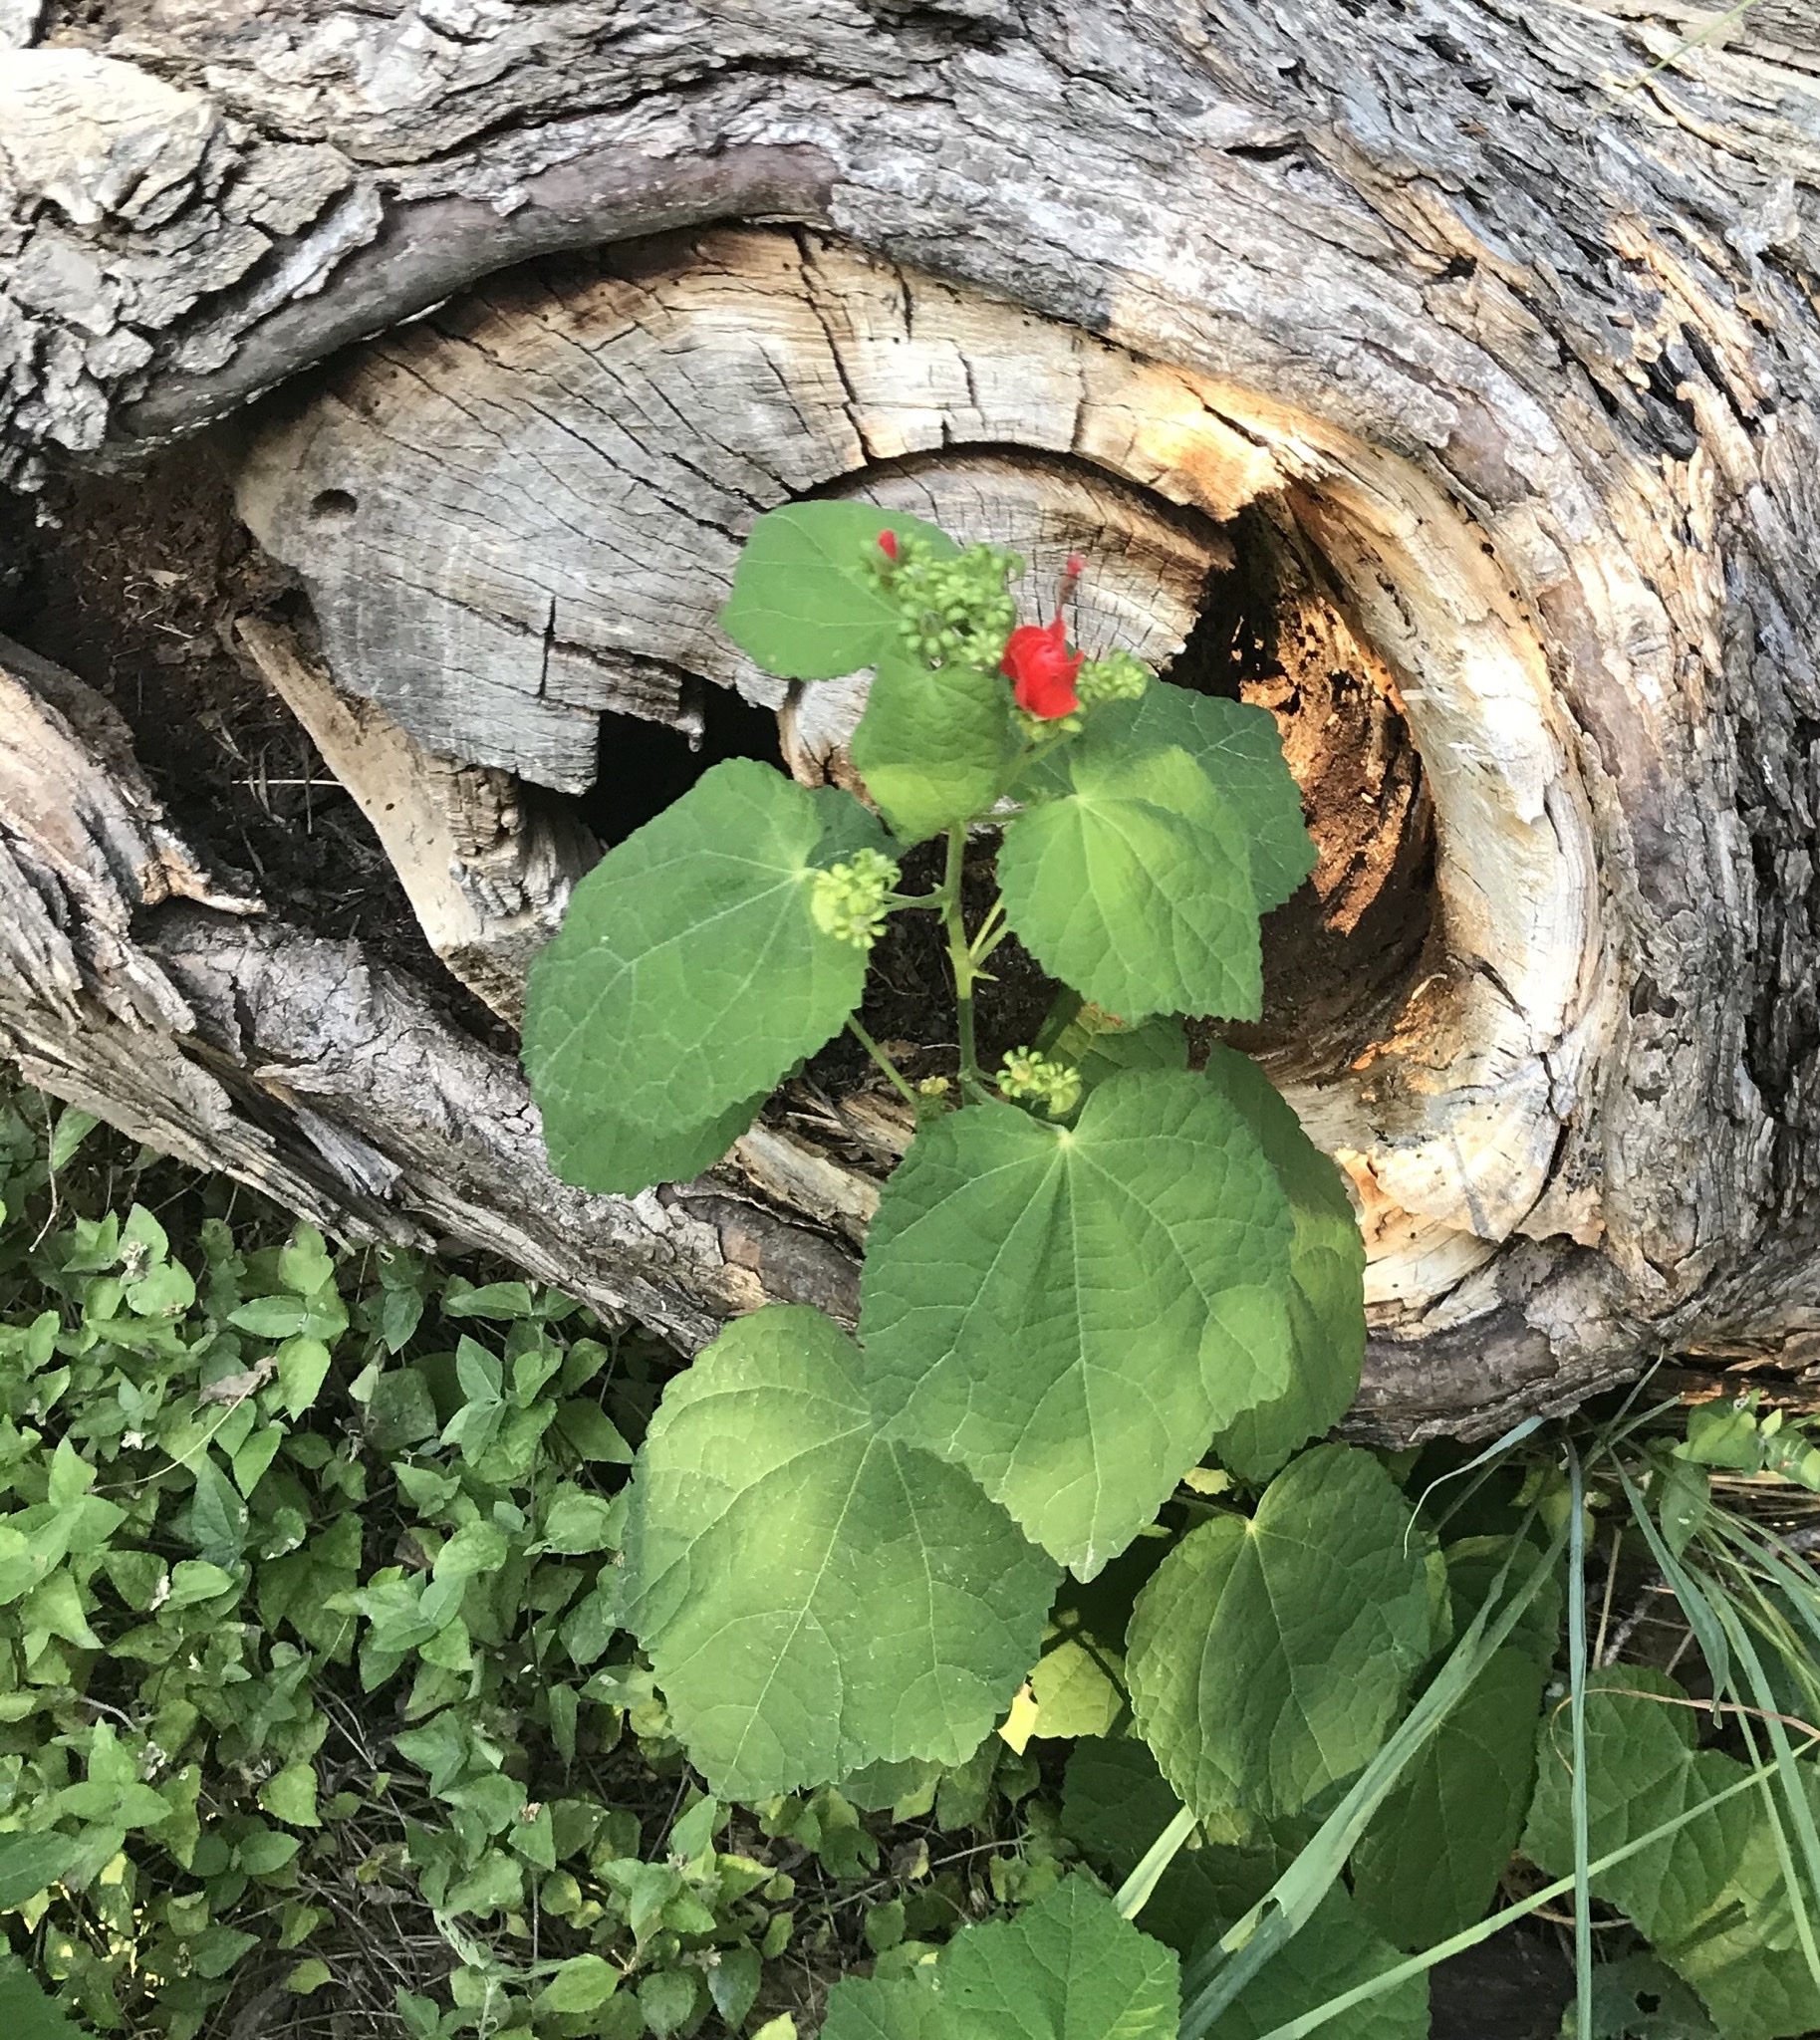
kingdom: Plantae
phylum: Tracheophyta
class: Magnoliopsida
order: Malvales
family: Malvaceae
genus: Malvaviscus
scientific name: Malvaviscus arboreus
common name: Wax mallow
